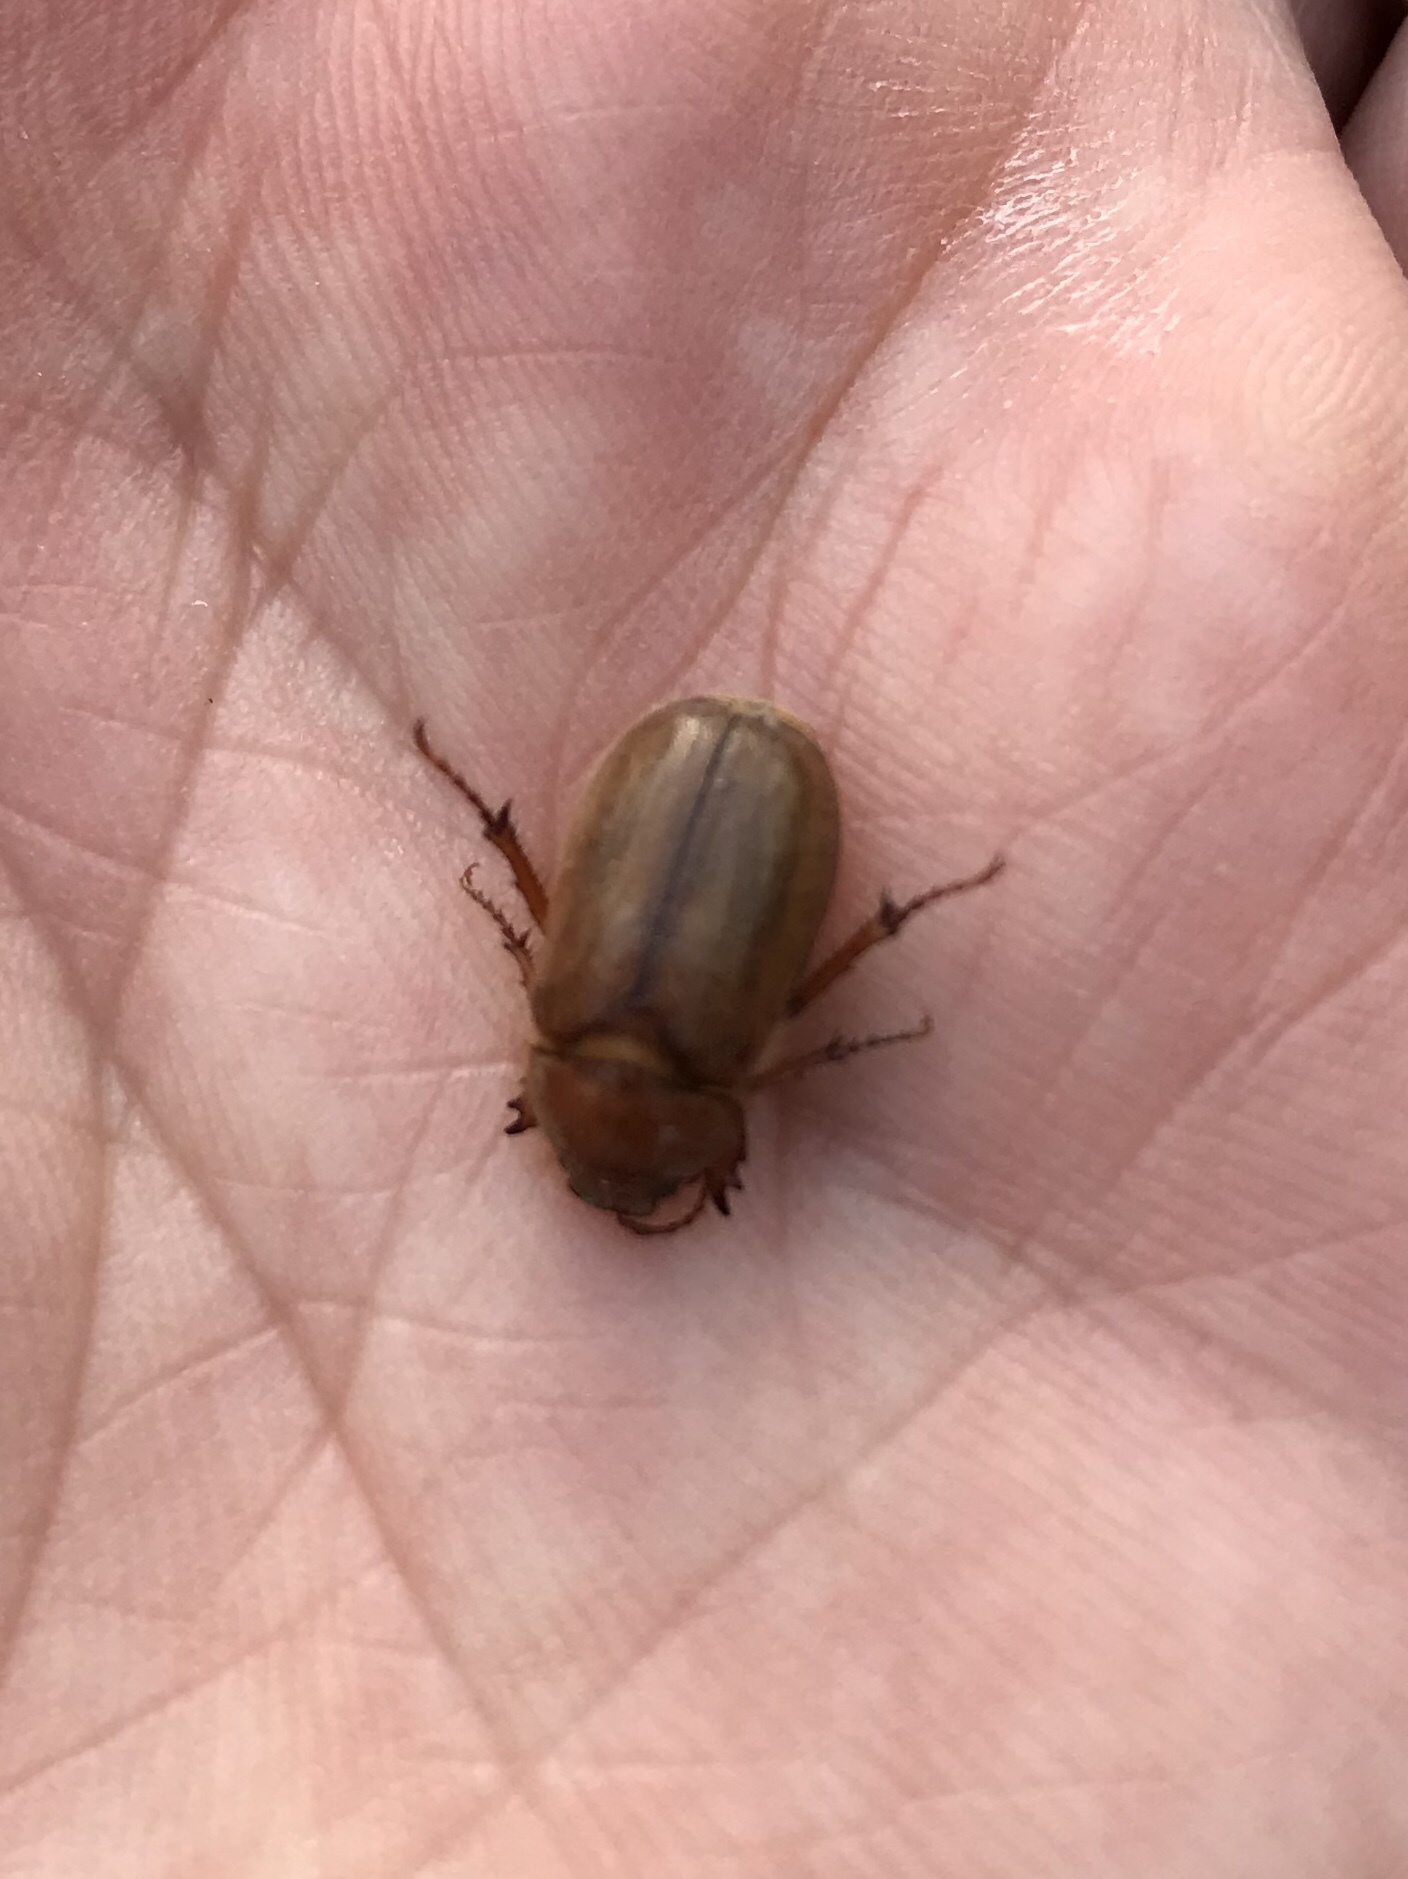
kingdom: Animalia
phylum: Arthropoda
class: Insecta
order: Coleoptera
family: Scarabaeidae
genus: Holochelus
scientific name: Holochelus fraxinicola
